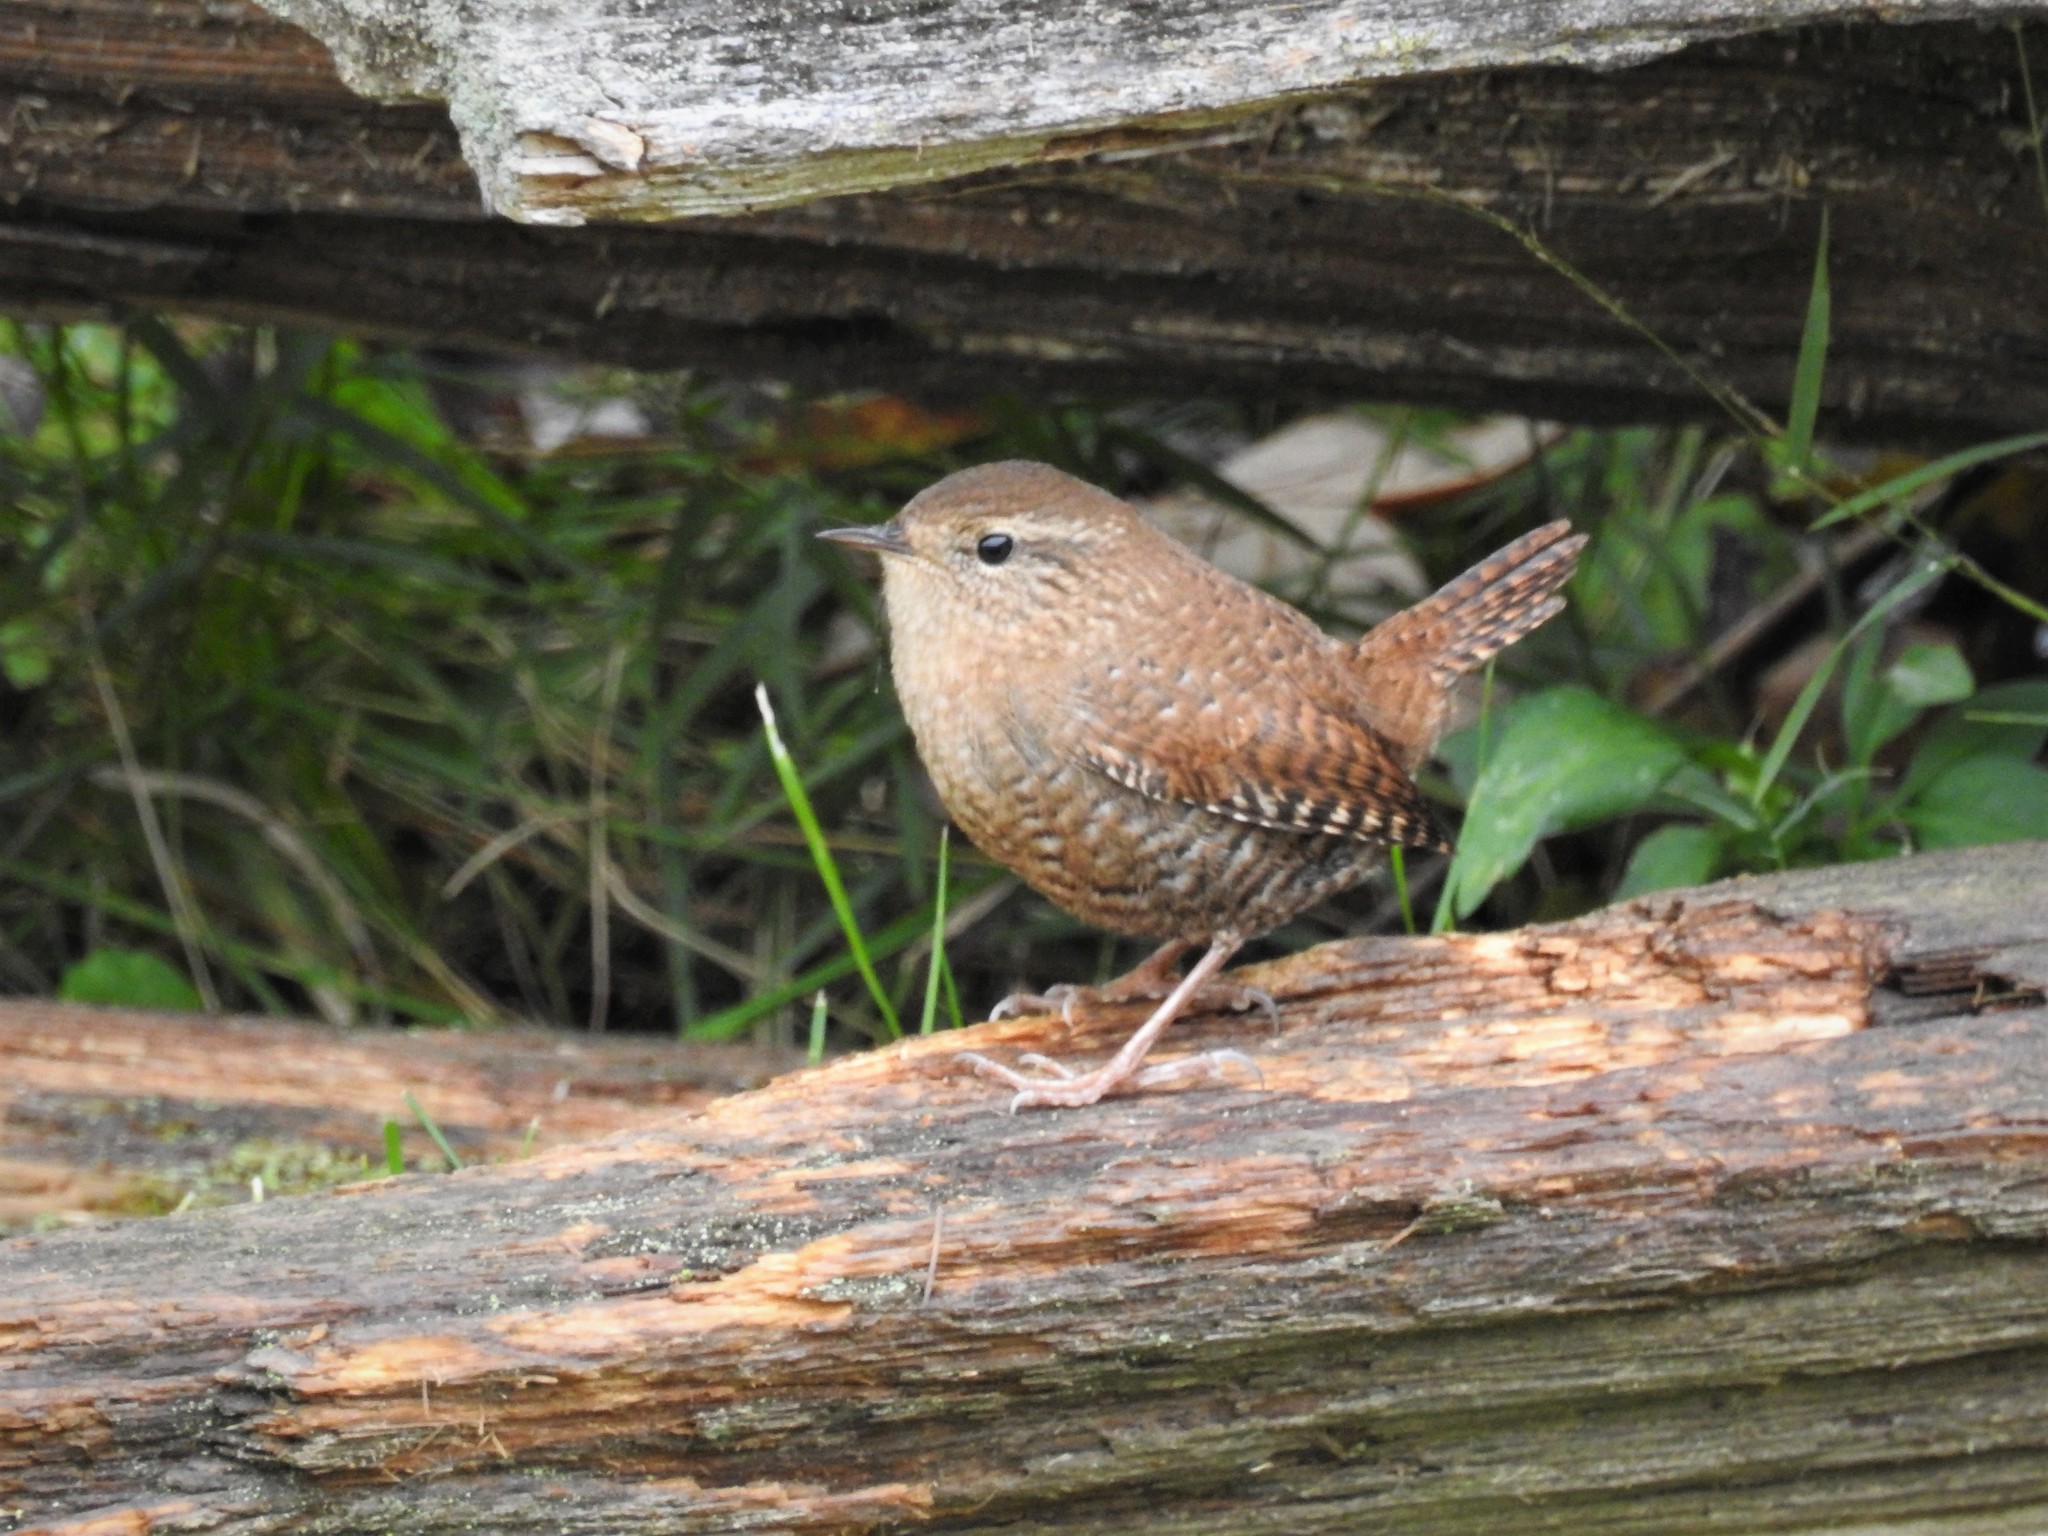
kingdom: Animalia
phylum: Chordata
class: Aves
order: Passeriformes
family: Troglodytidae
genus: Troglodytes
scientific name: Troglodytes hiemalis
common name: Winter wren
